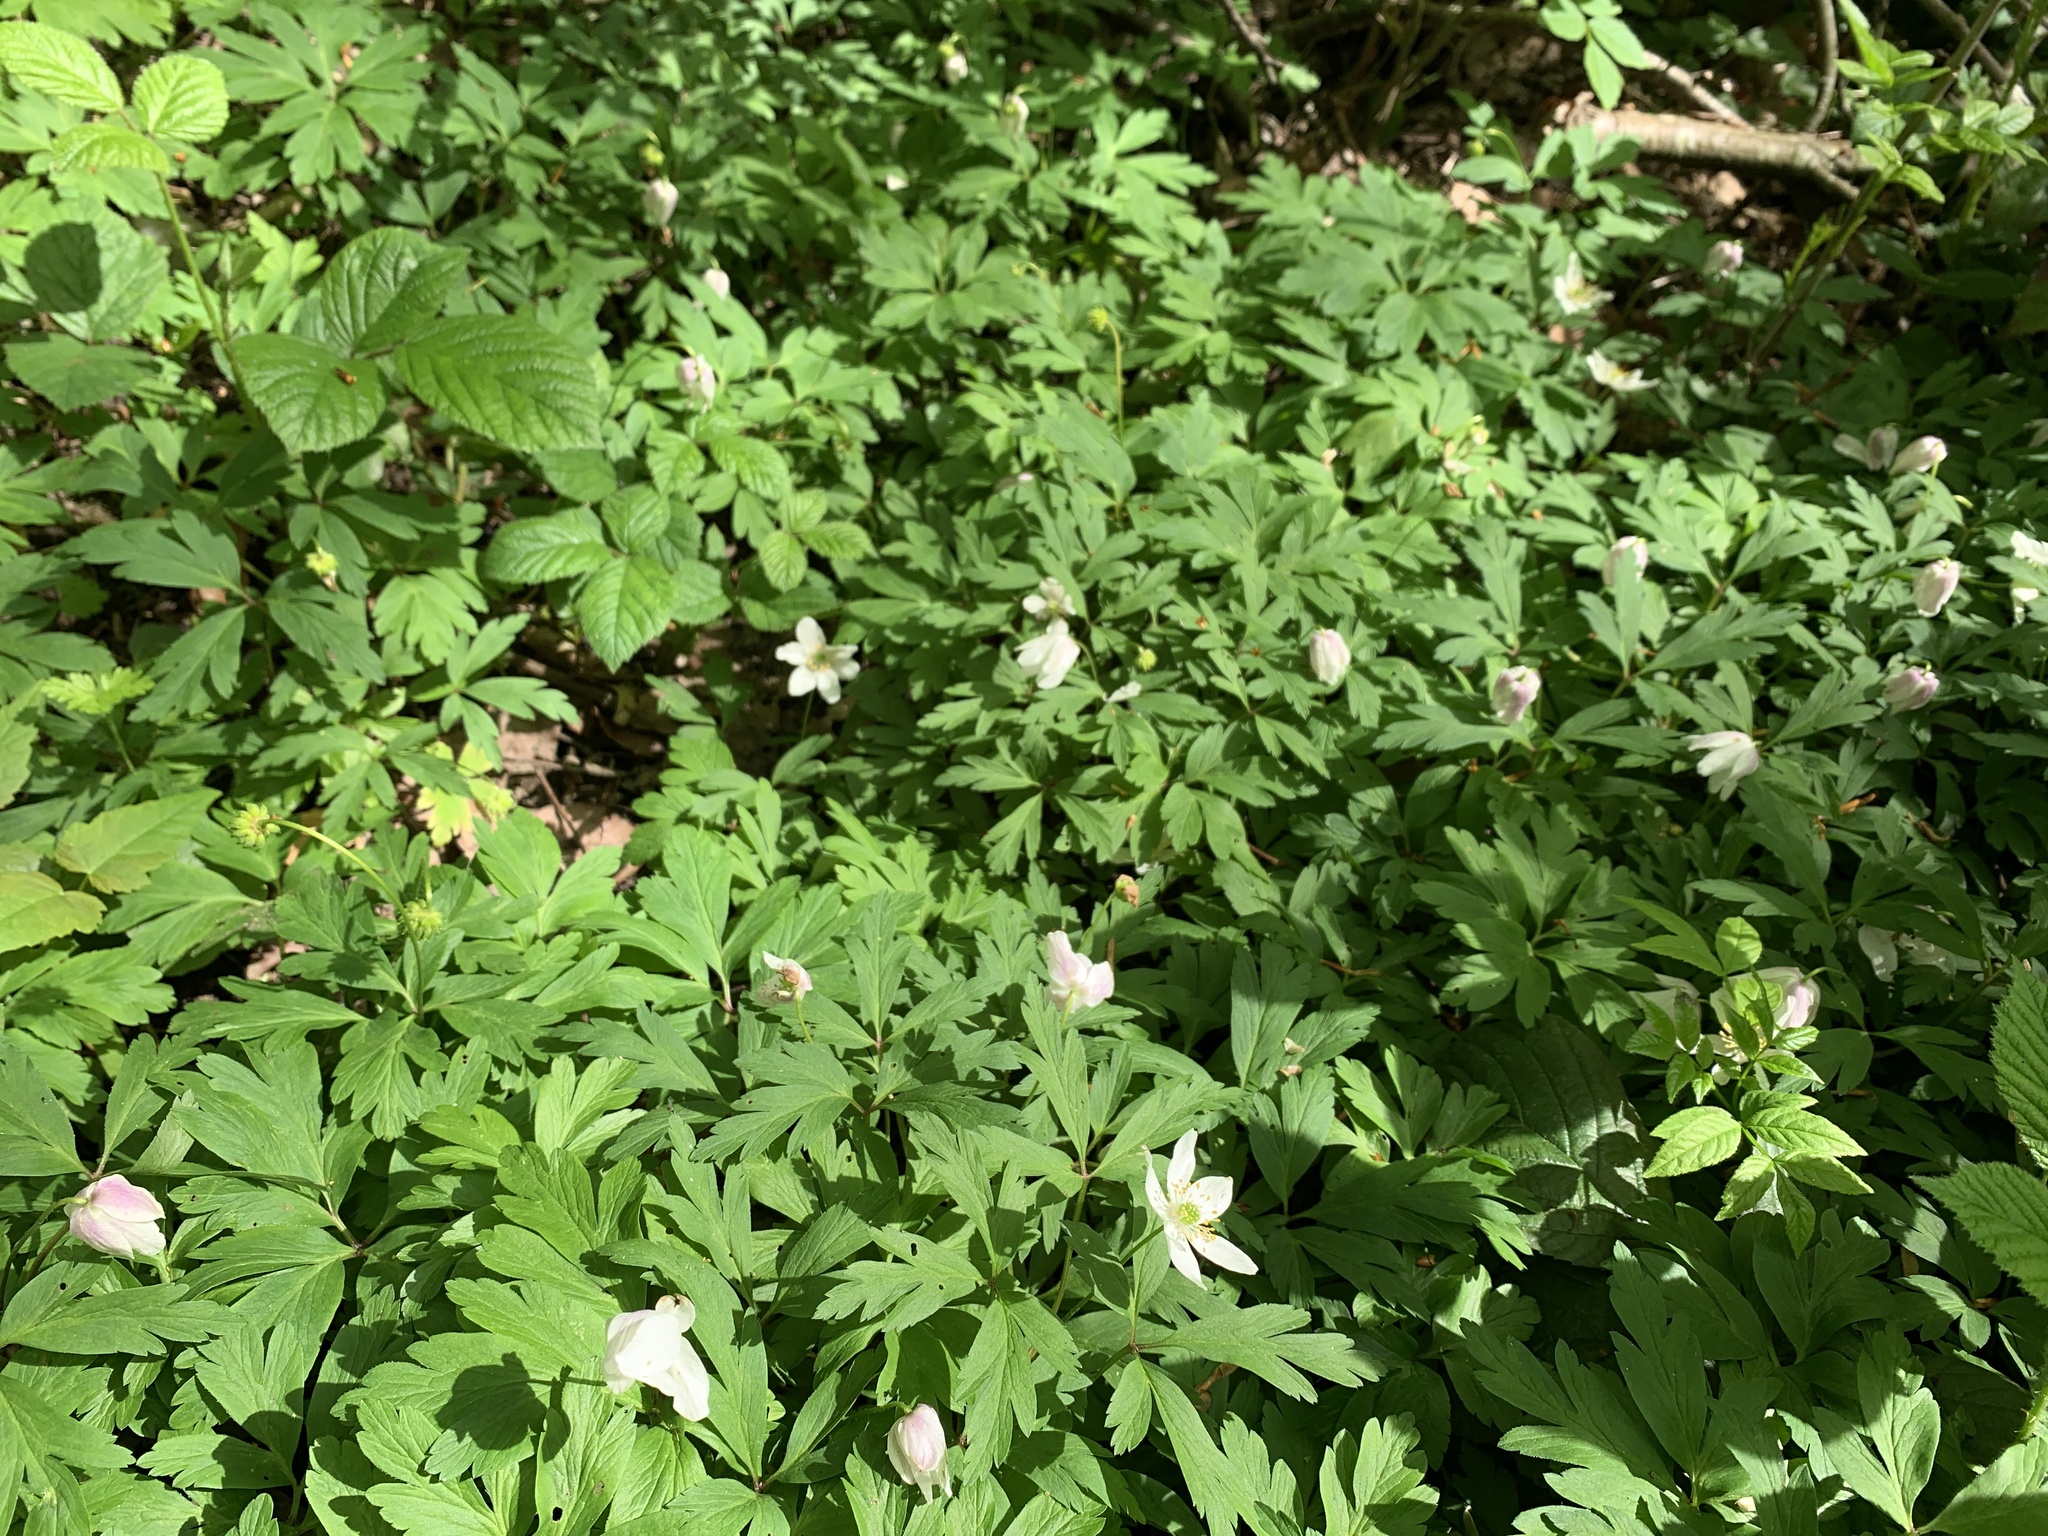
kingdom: Plantae
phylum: Tracheophyta
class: Magnoliopsida
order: Ranunculales
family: Ranunculaceae
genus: Anemone
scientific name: Anemone nemorosa
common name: Wood anemone
